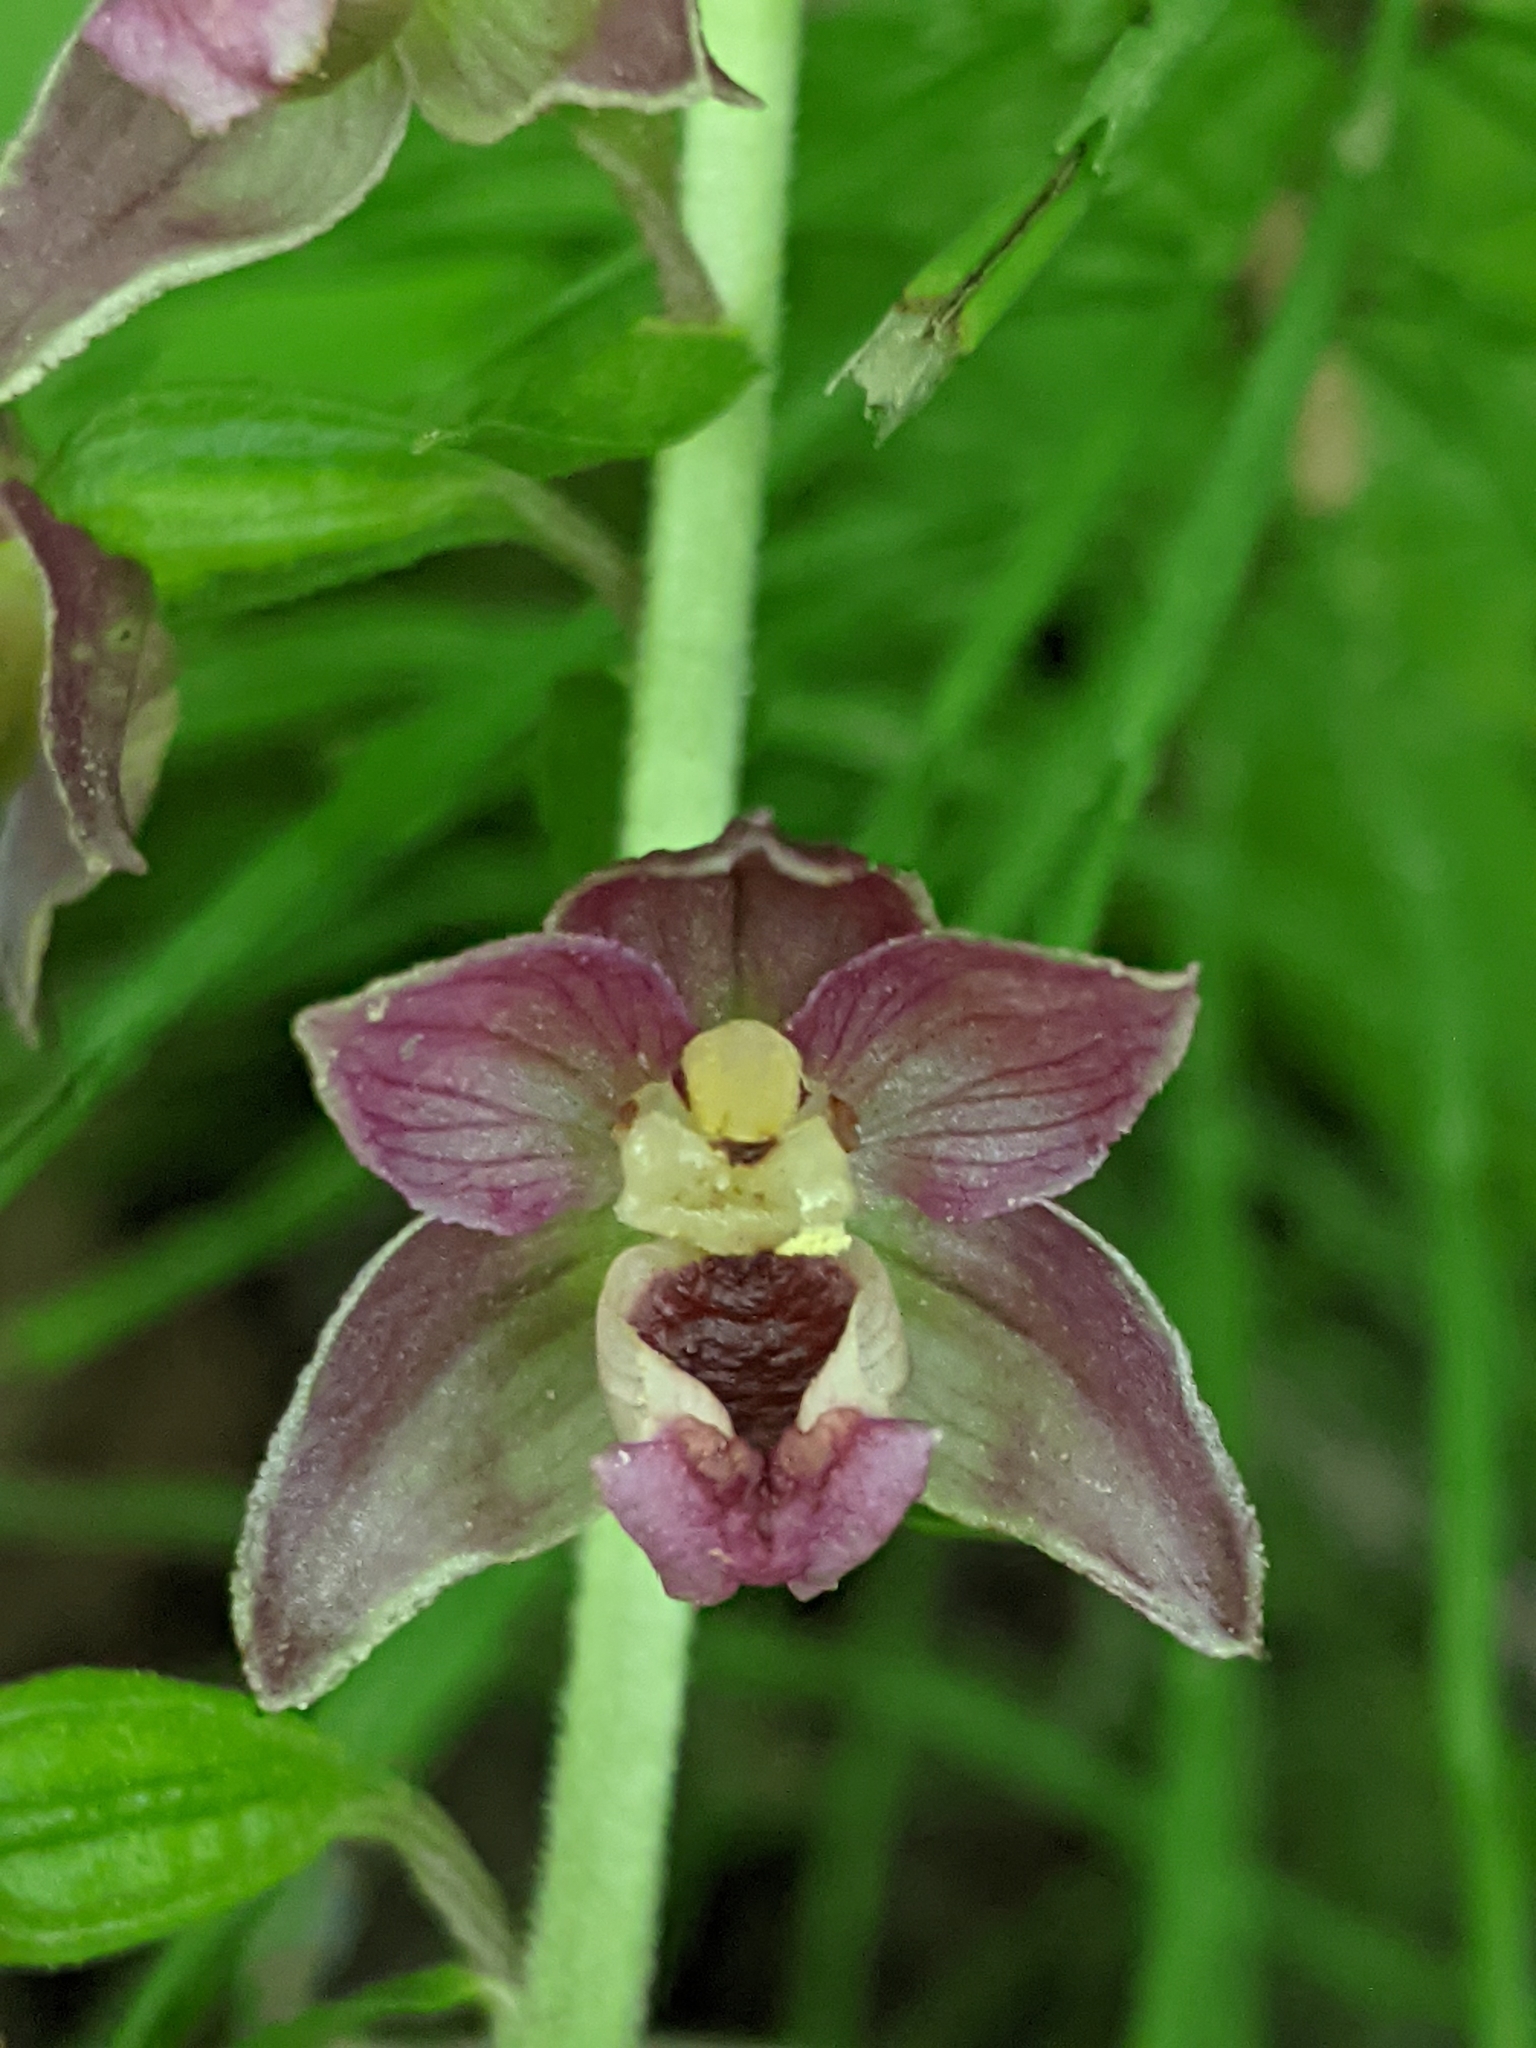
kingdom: Plantae
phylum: Tracheophyta
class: Liliopsida
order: Asparagales
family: Orchidaceae
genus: Epipactis
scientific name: Epipactis helleborine
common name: Broad-leaved helleborine
